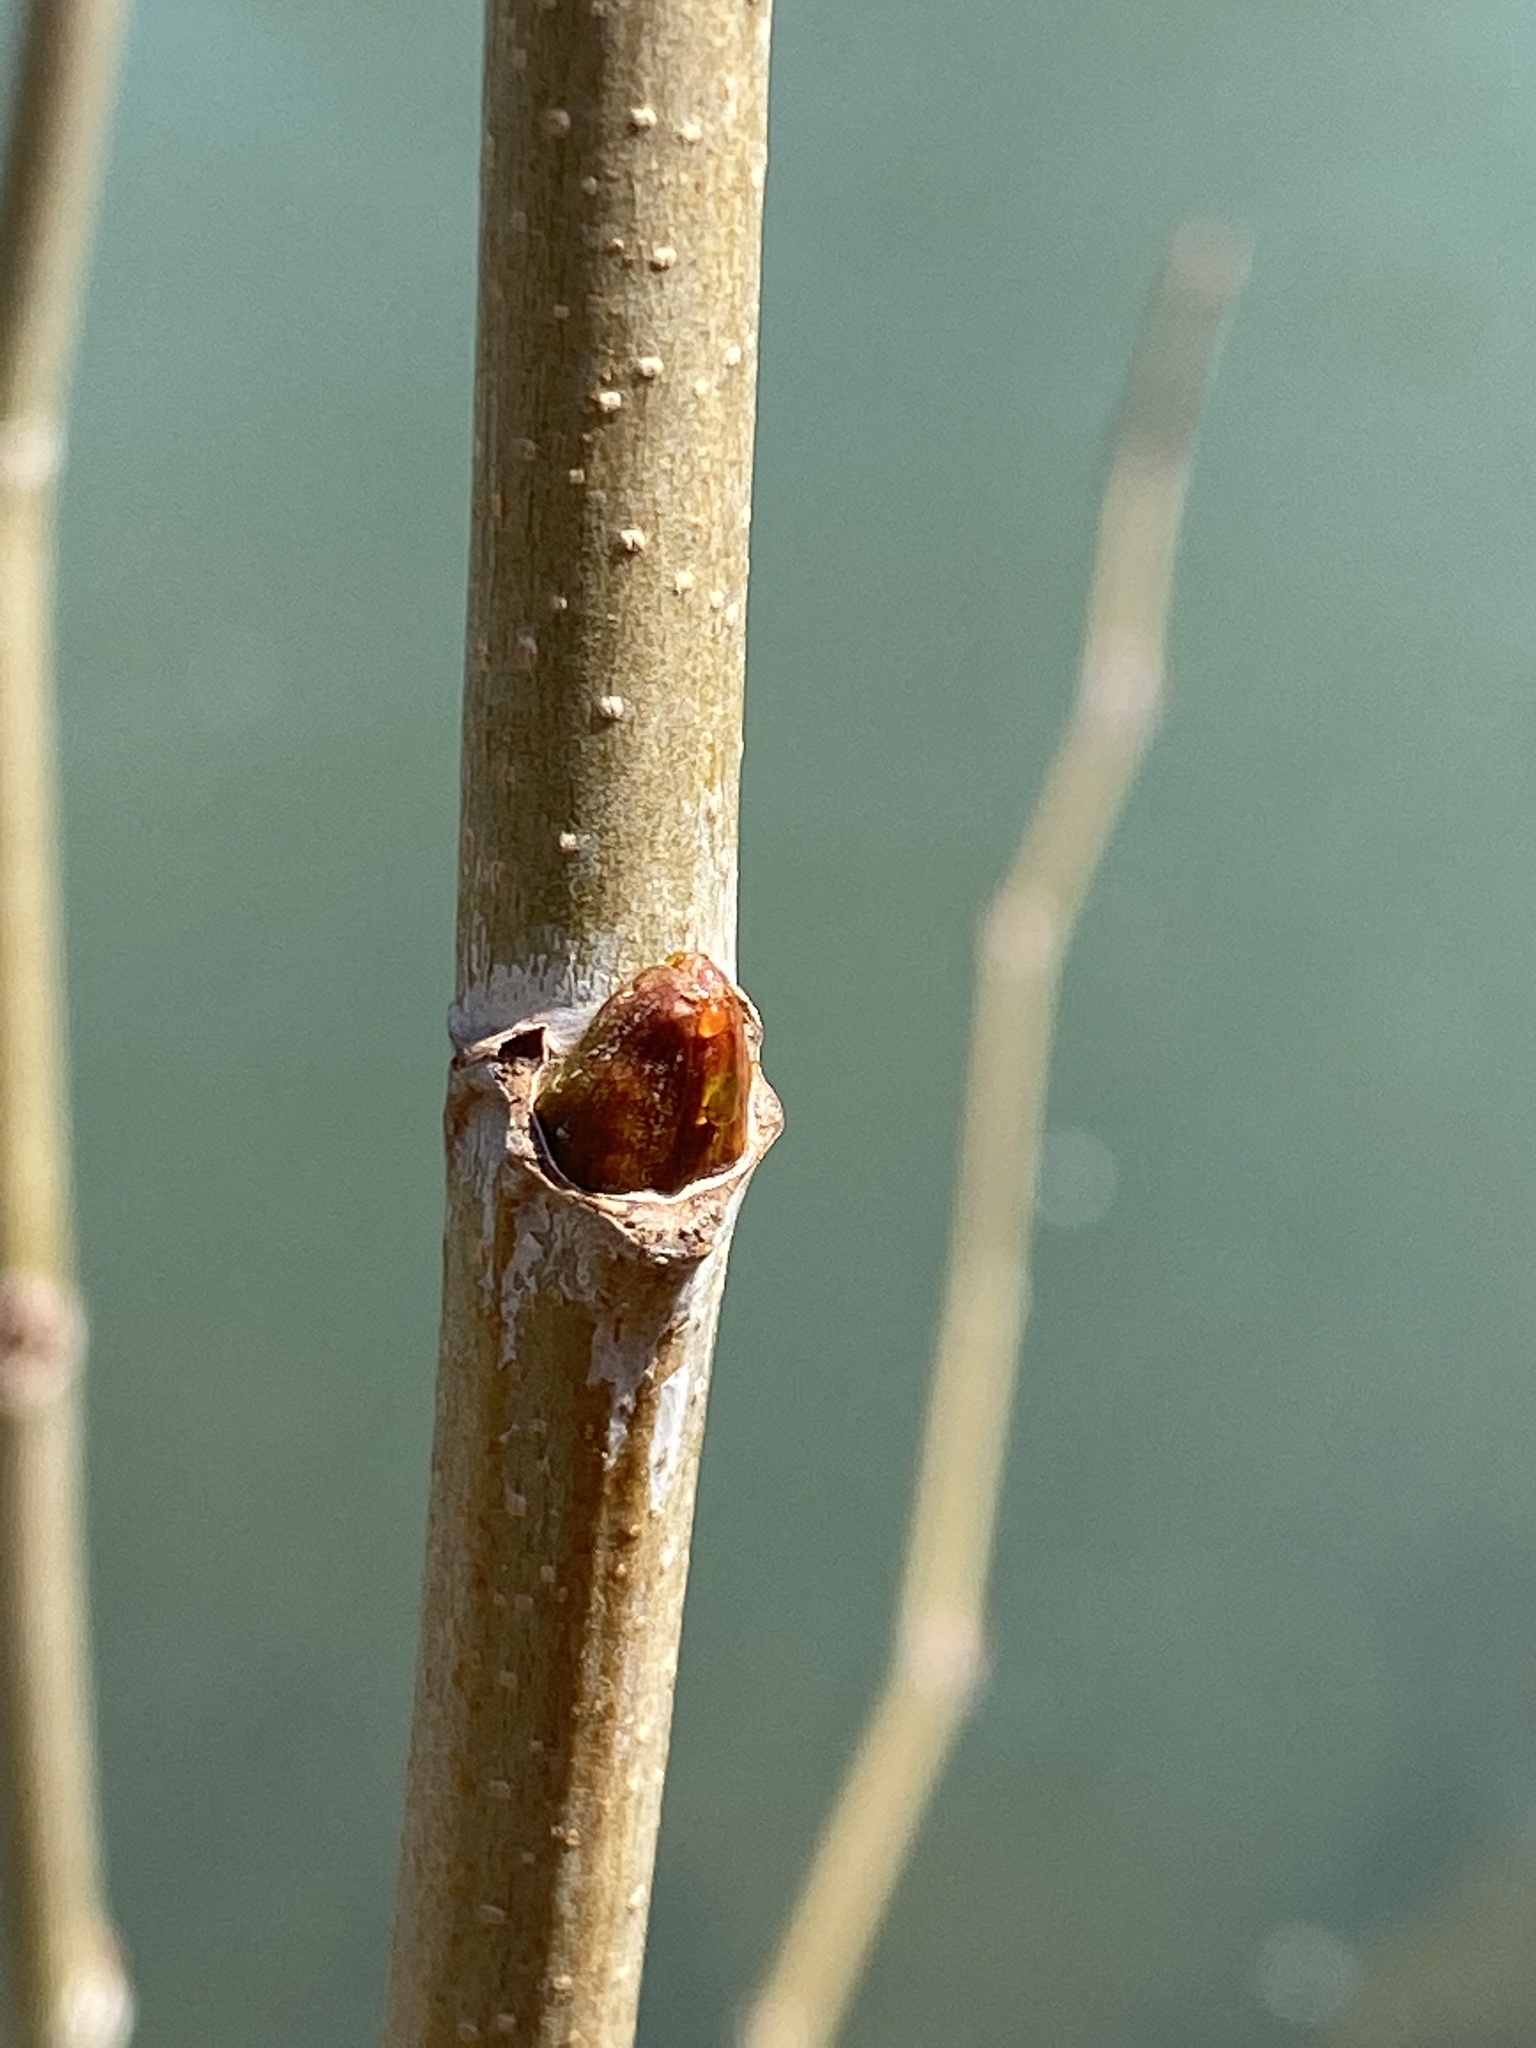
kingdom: Plantae
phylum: Tracheophyta
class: Magnoliopsida
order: Proteales
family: Platanaceae
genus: Platanus
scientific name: Platanus occidentalis
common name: American sycamore
